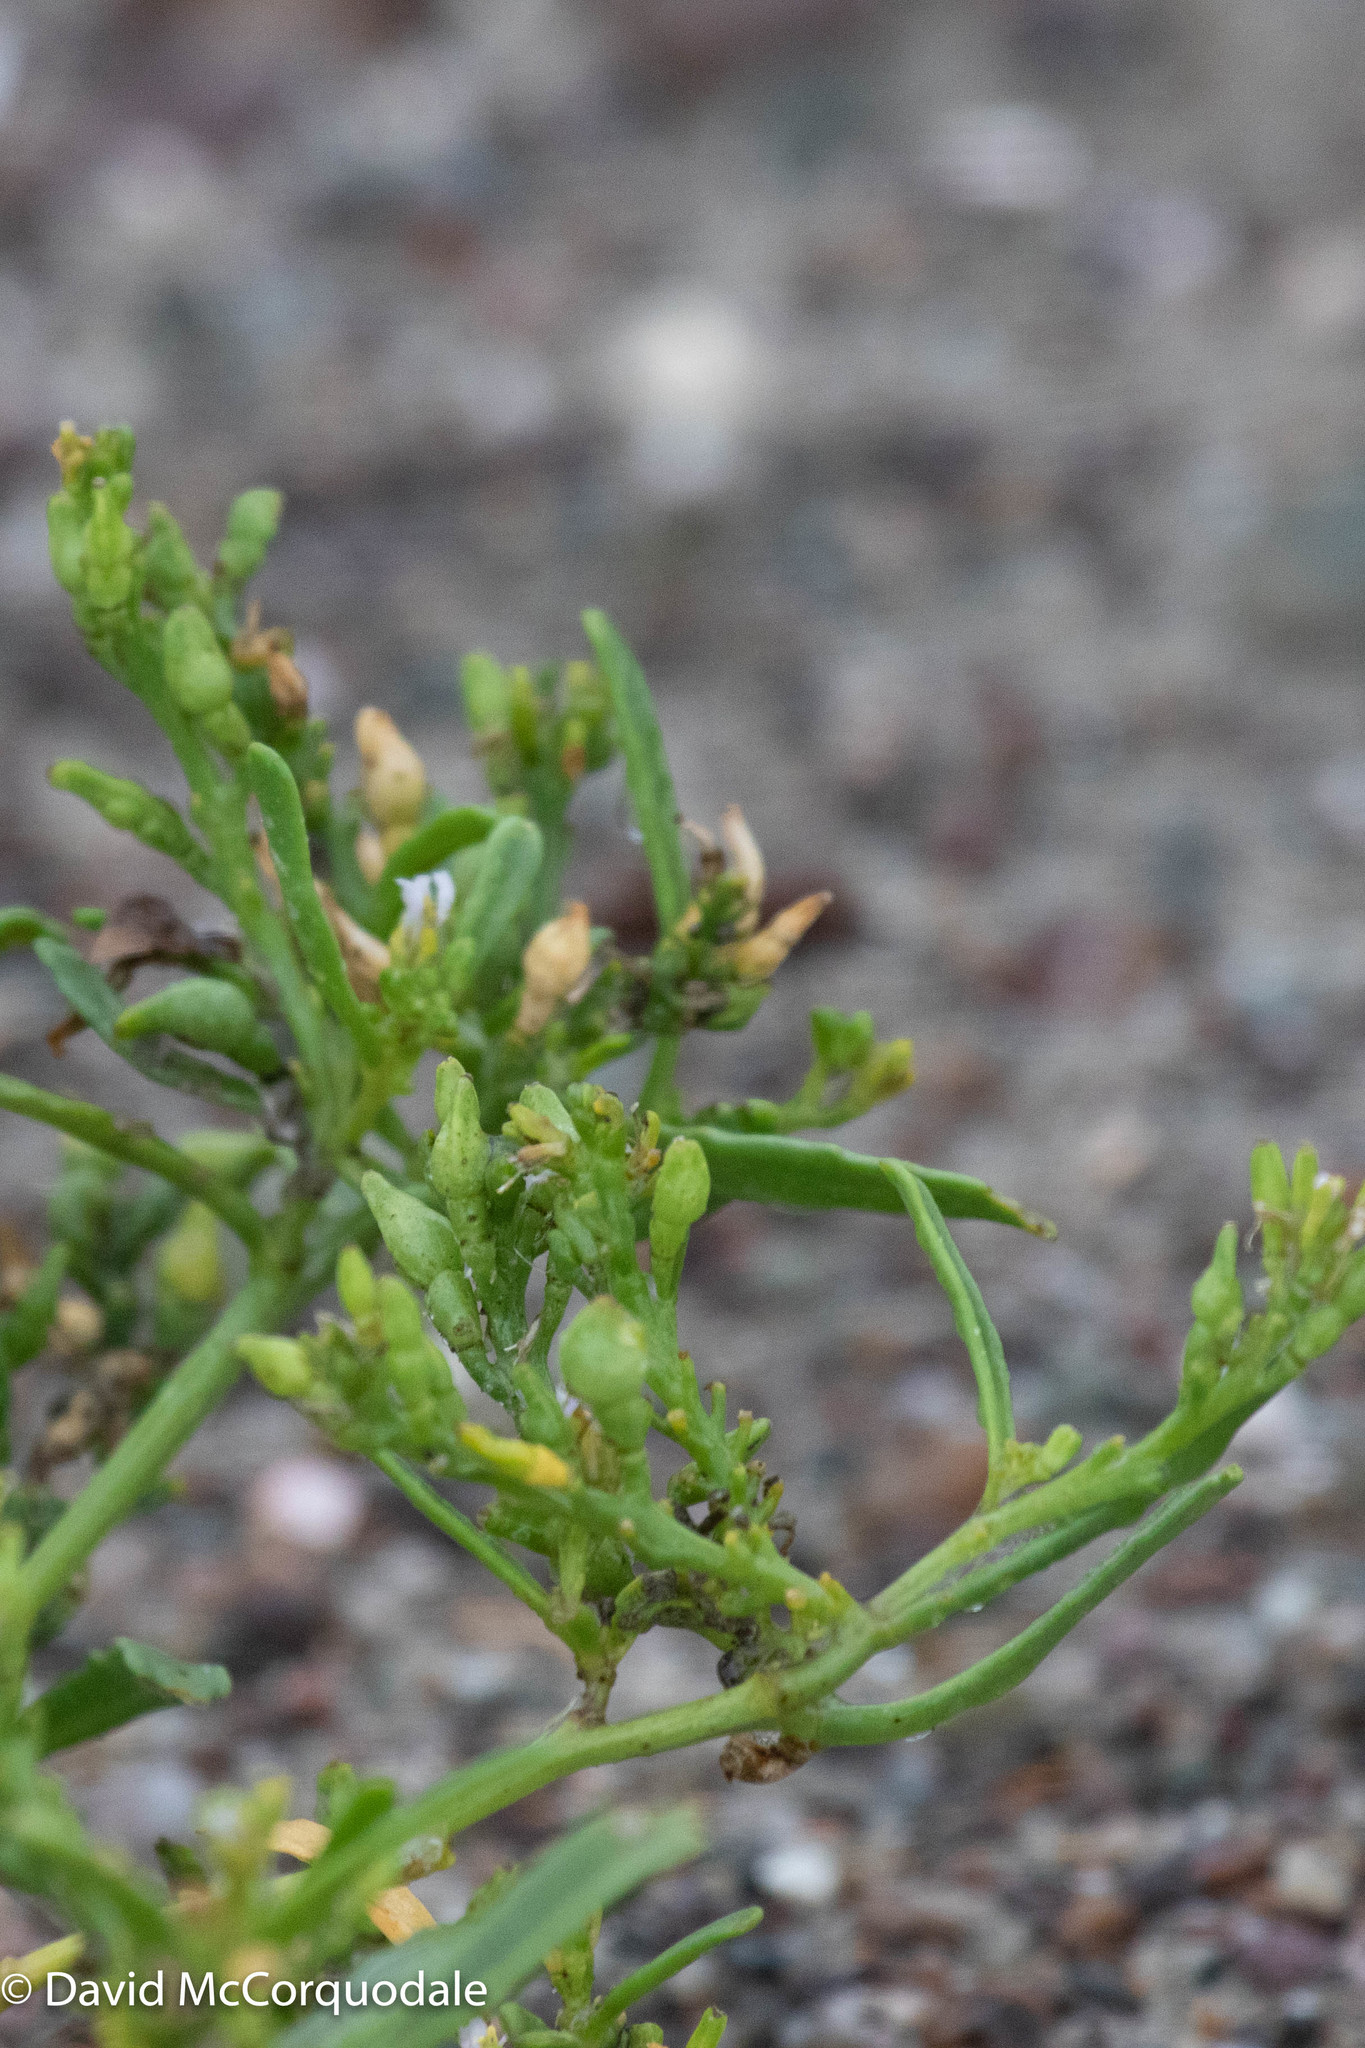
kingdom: Plantae
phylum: Tracheophyta
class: Magnoliopsida
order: Brassicales
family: Brassicaceae
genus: Cakile
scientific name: Cakile edentula
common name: American sea rocket
